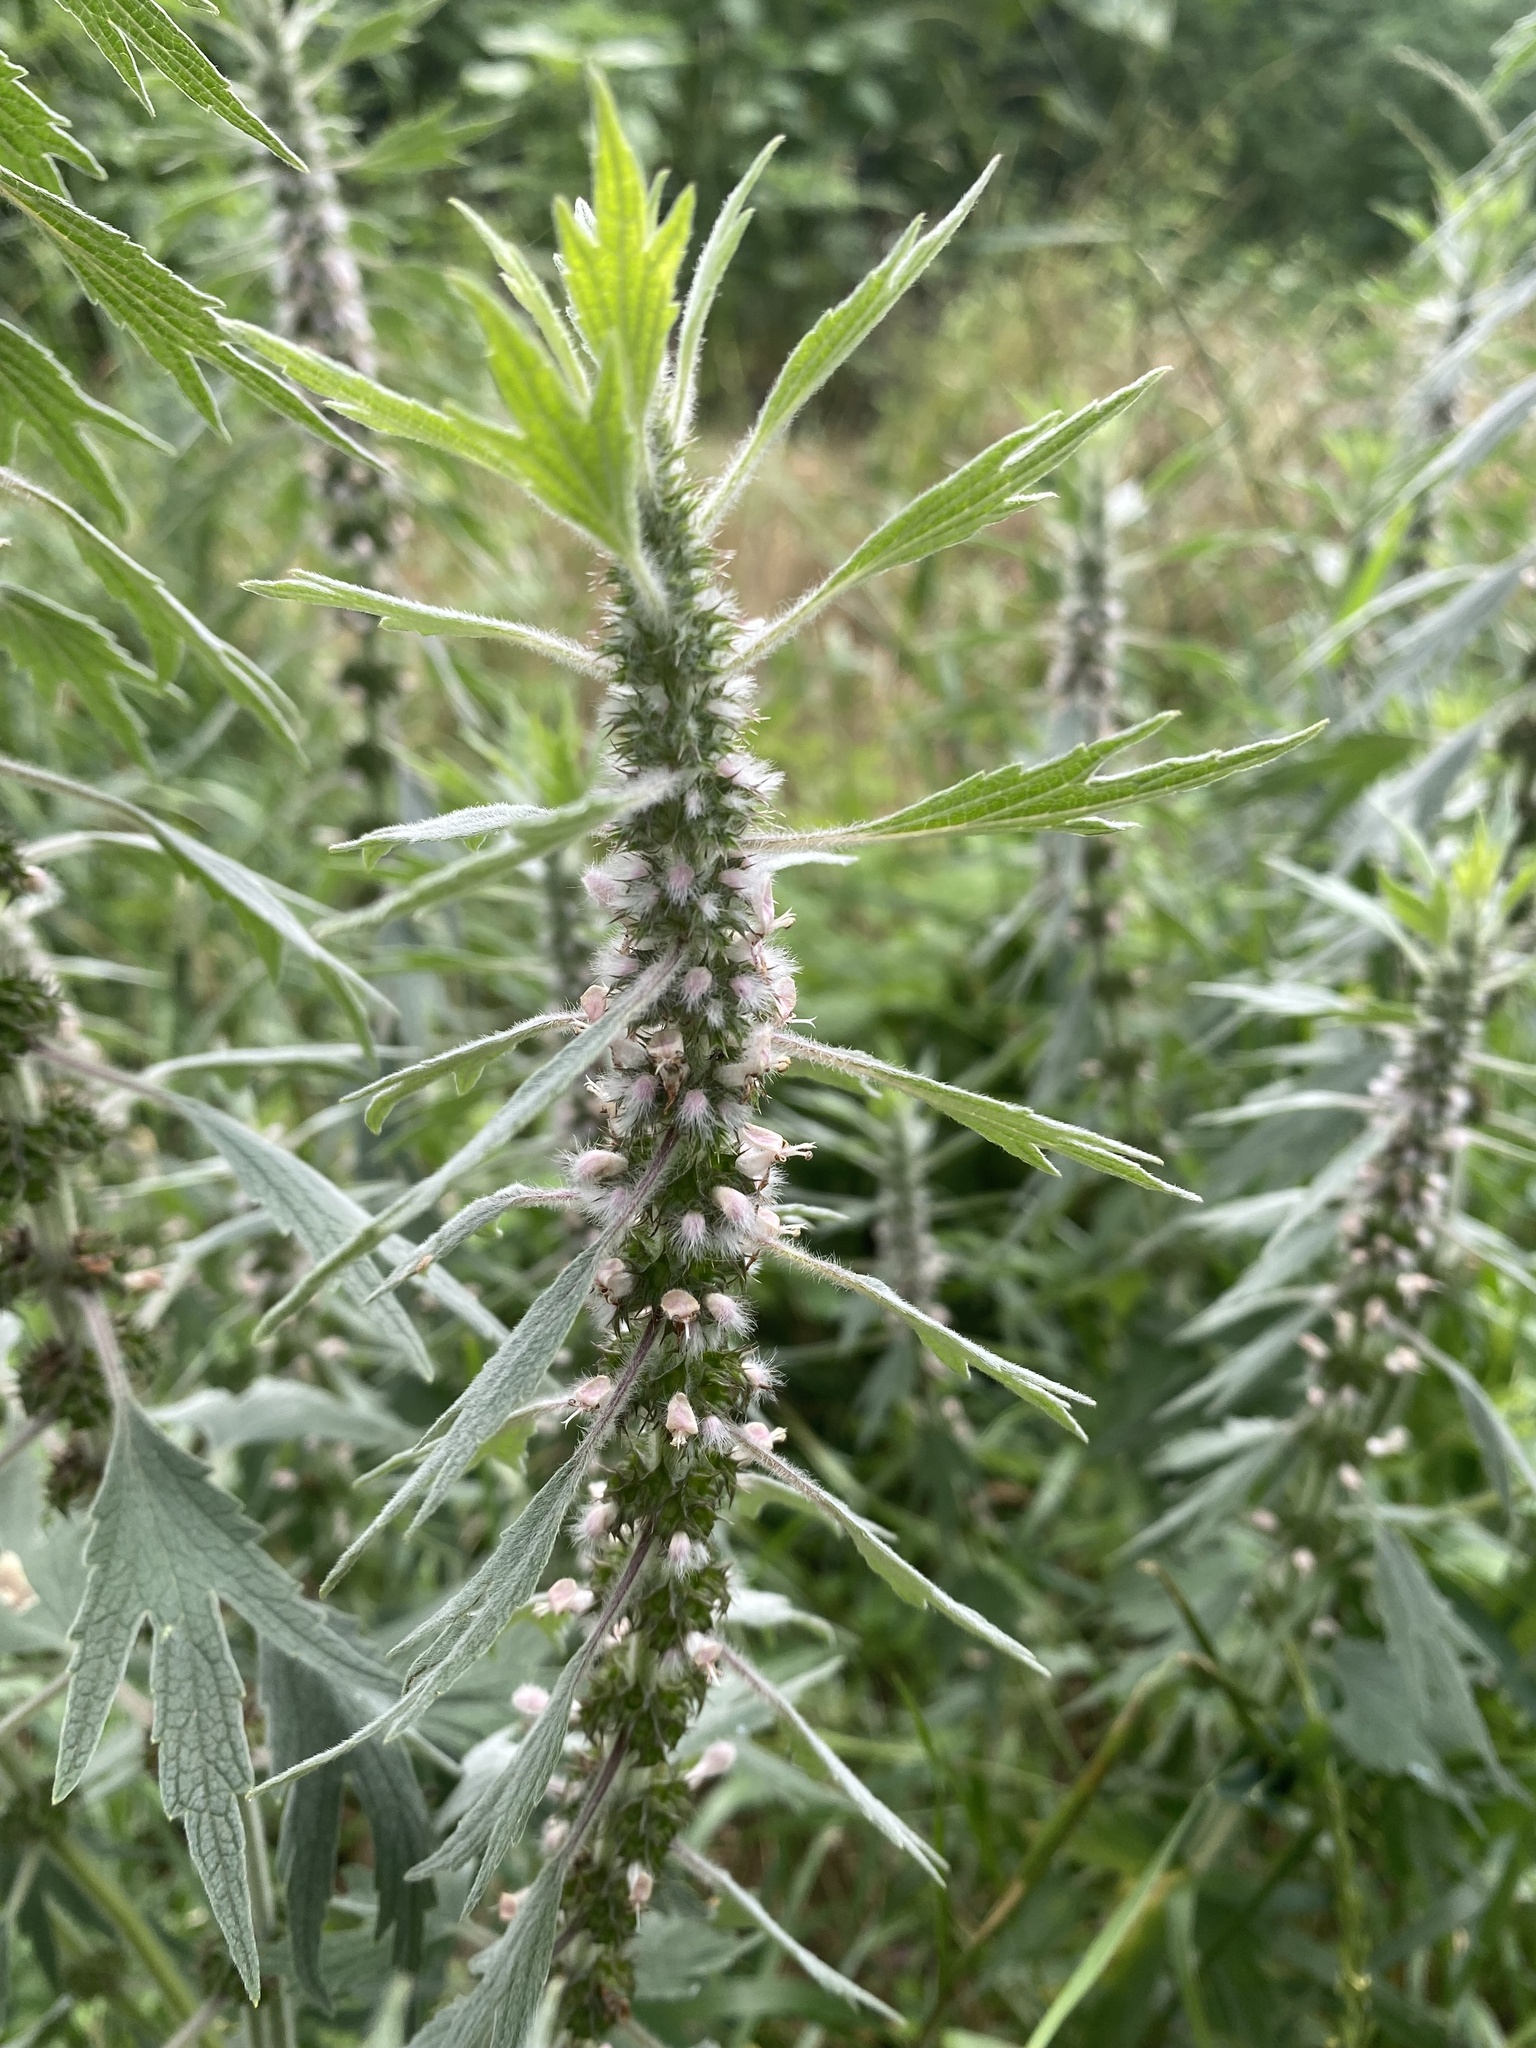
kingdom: Plantae
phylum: Tracheophyta
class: Magnoliopsida
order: Lamiales
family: Lamiaceae
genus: Leonurus
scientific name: Leonurus quinquelobatus
